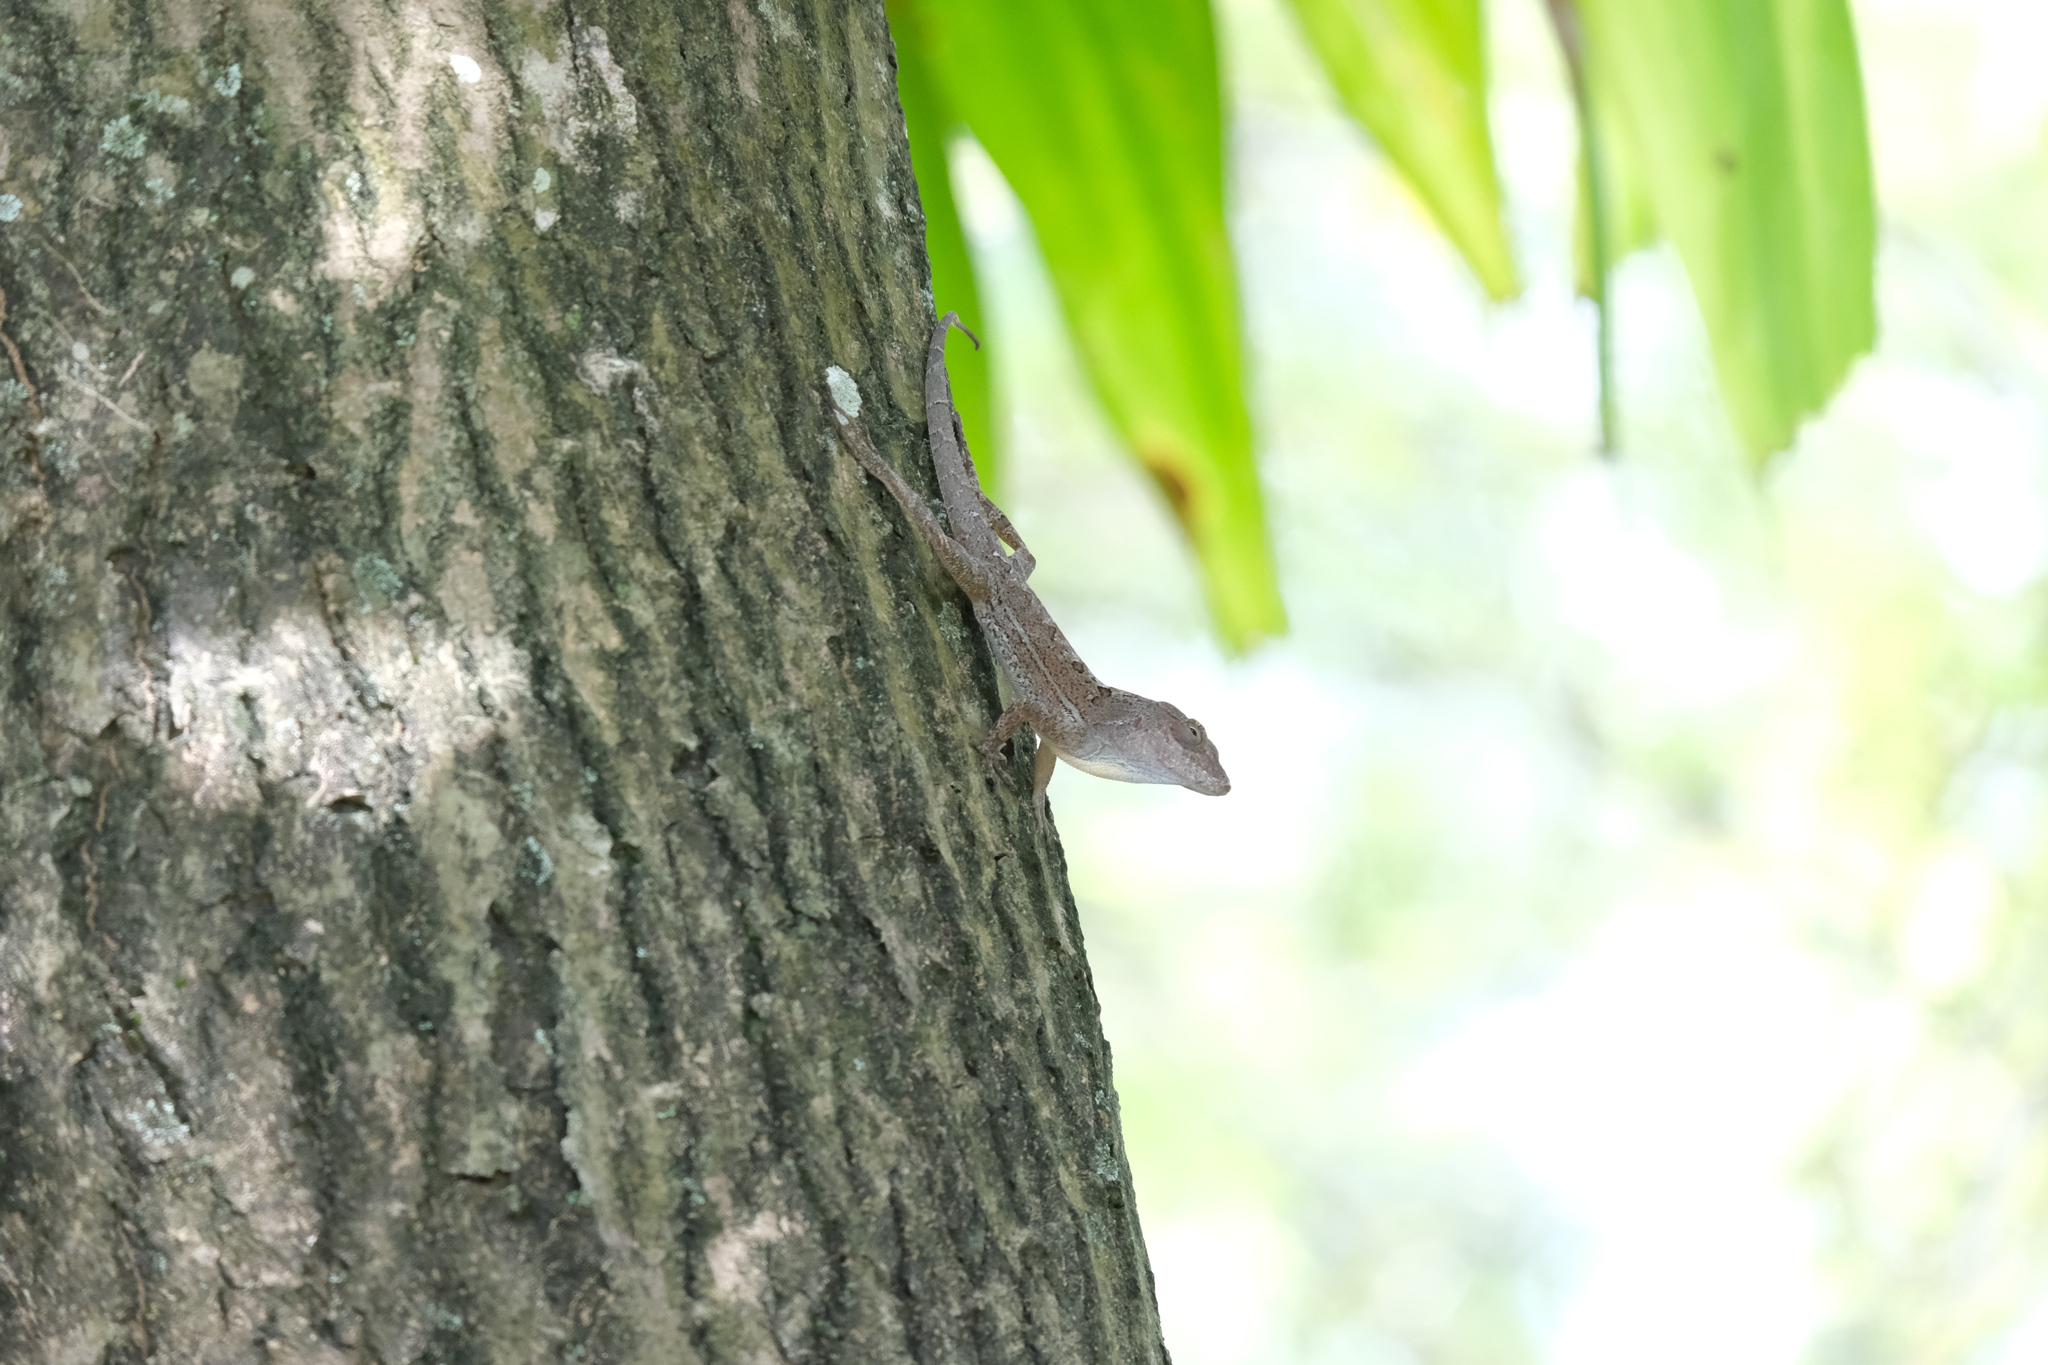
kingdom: Animalia
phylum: Chordata
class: Squamata
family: Dactyloidae
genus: Anolis
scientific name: Anolis cybotes
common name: Large-headed anole
